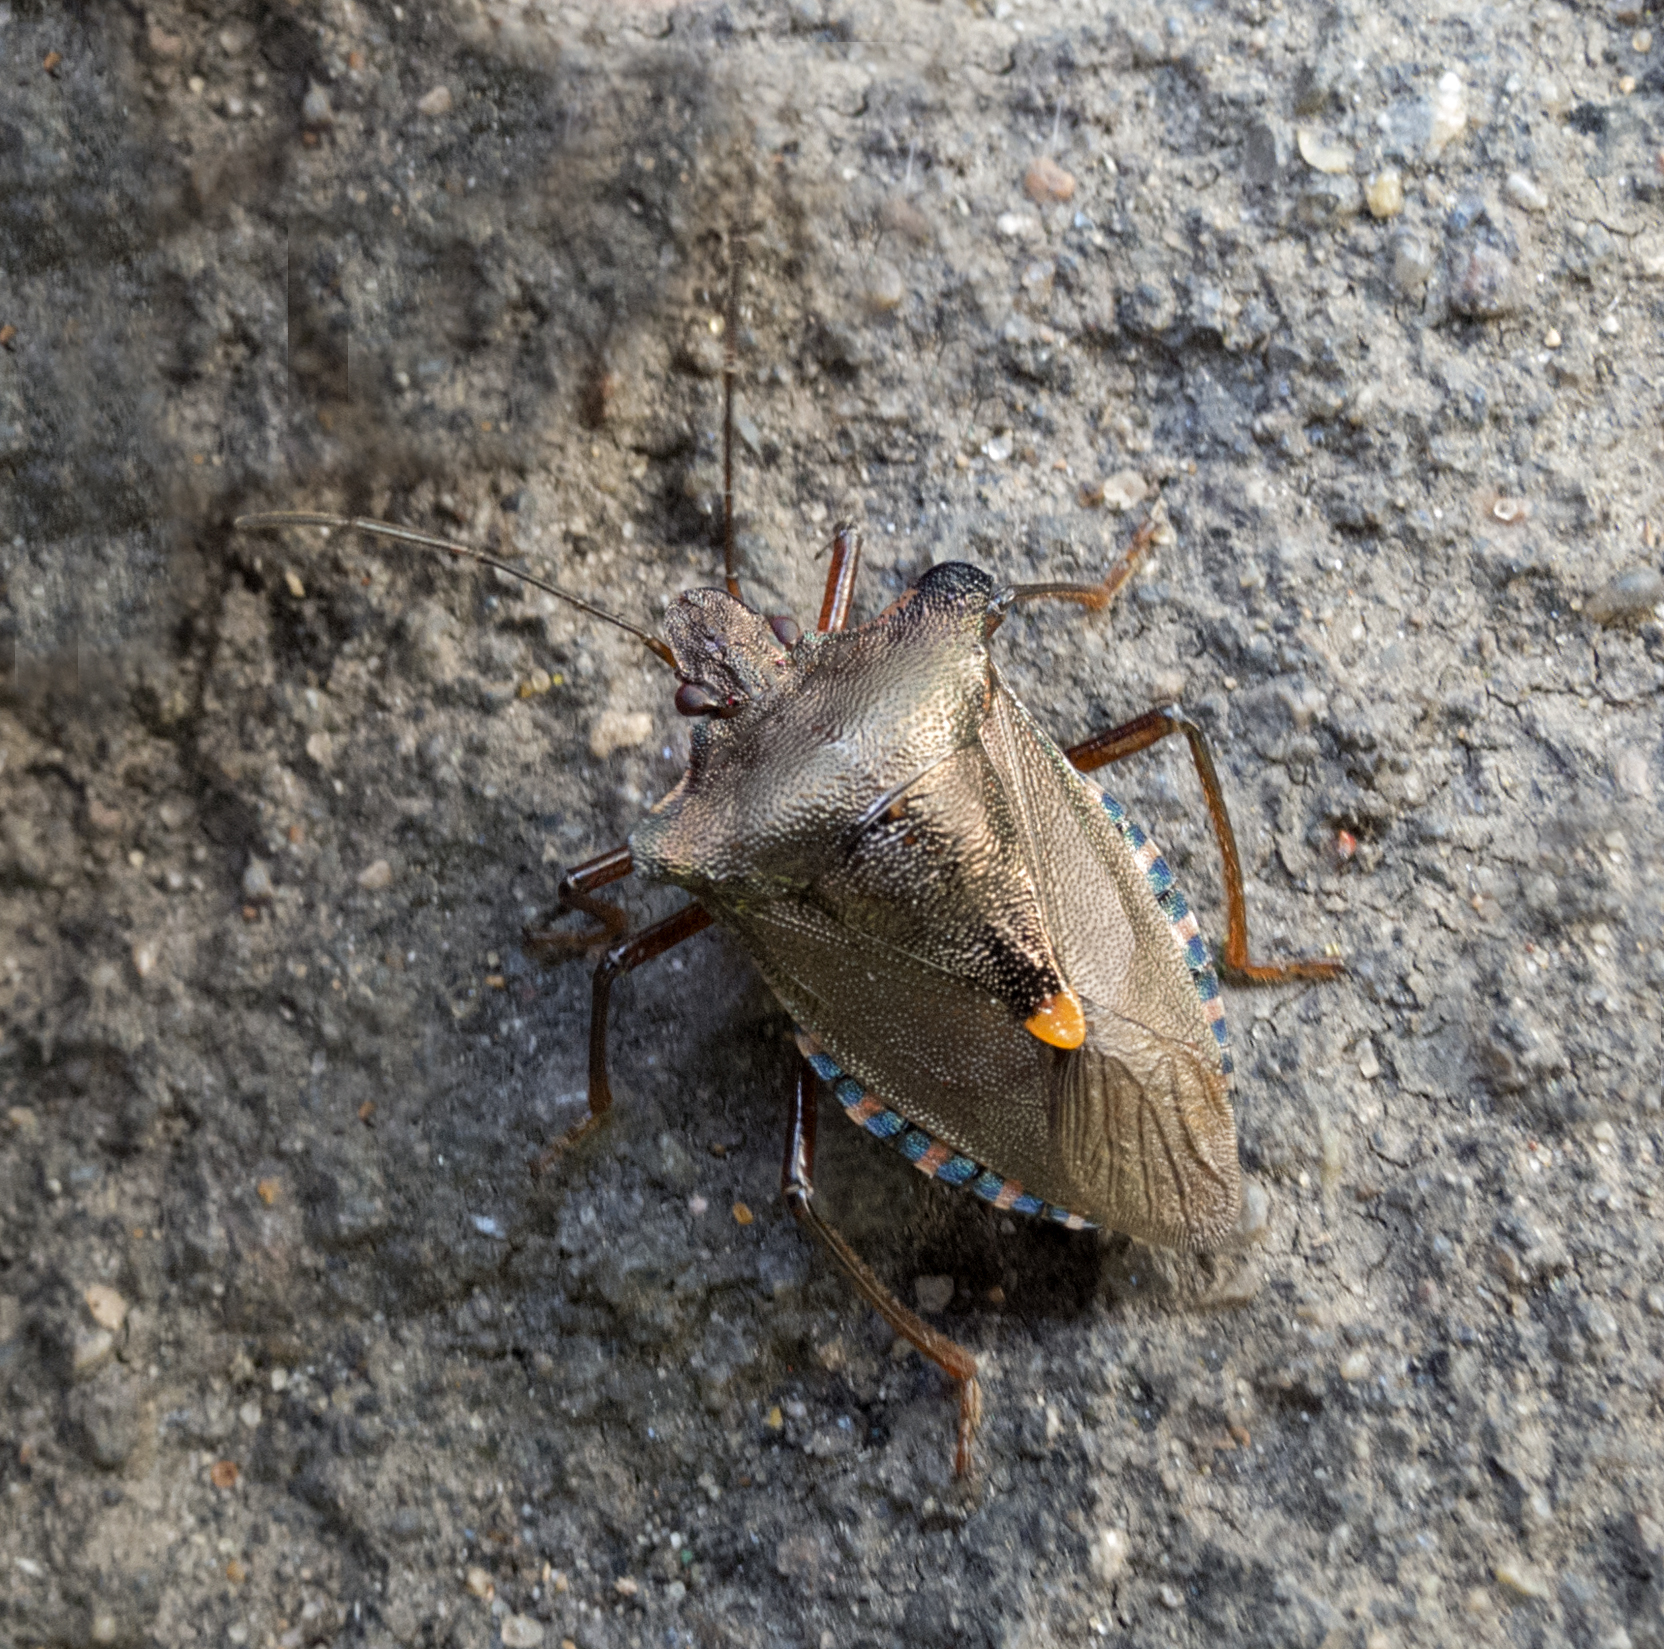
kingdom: Animalia
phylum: Arthropoda
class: Insecta
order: Hemiptera
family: Pentatomidae
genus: Pentatoma
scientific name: Pentatoma rufipes
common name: Forest bug
